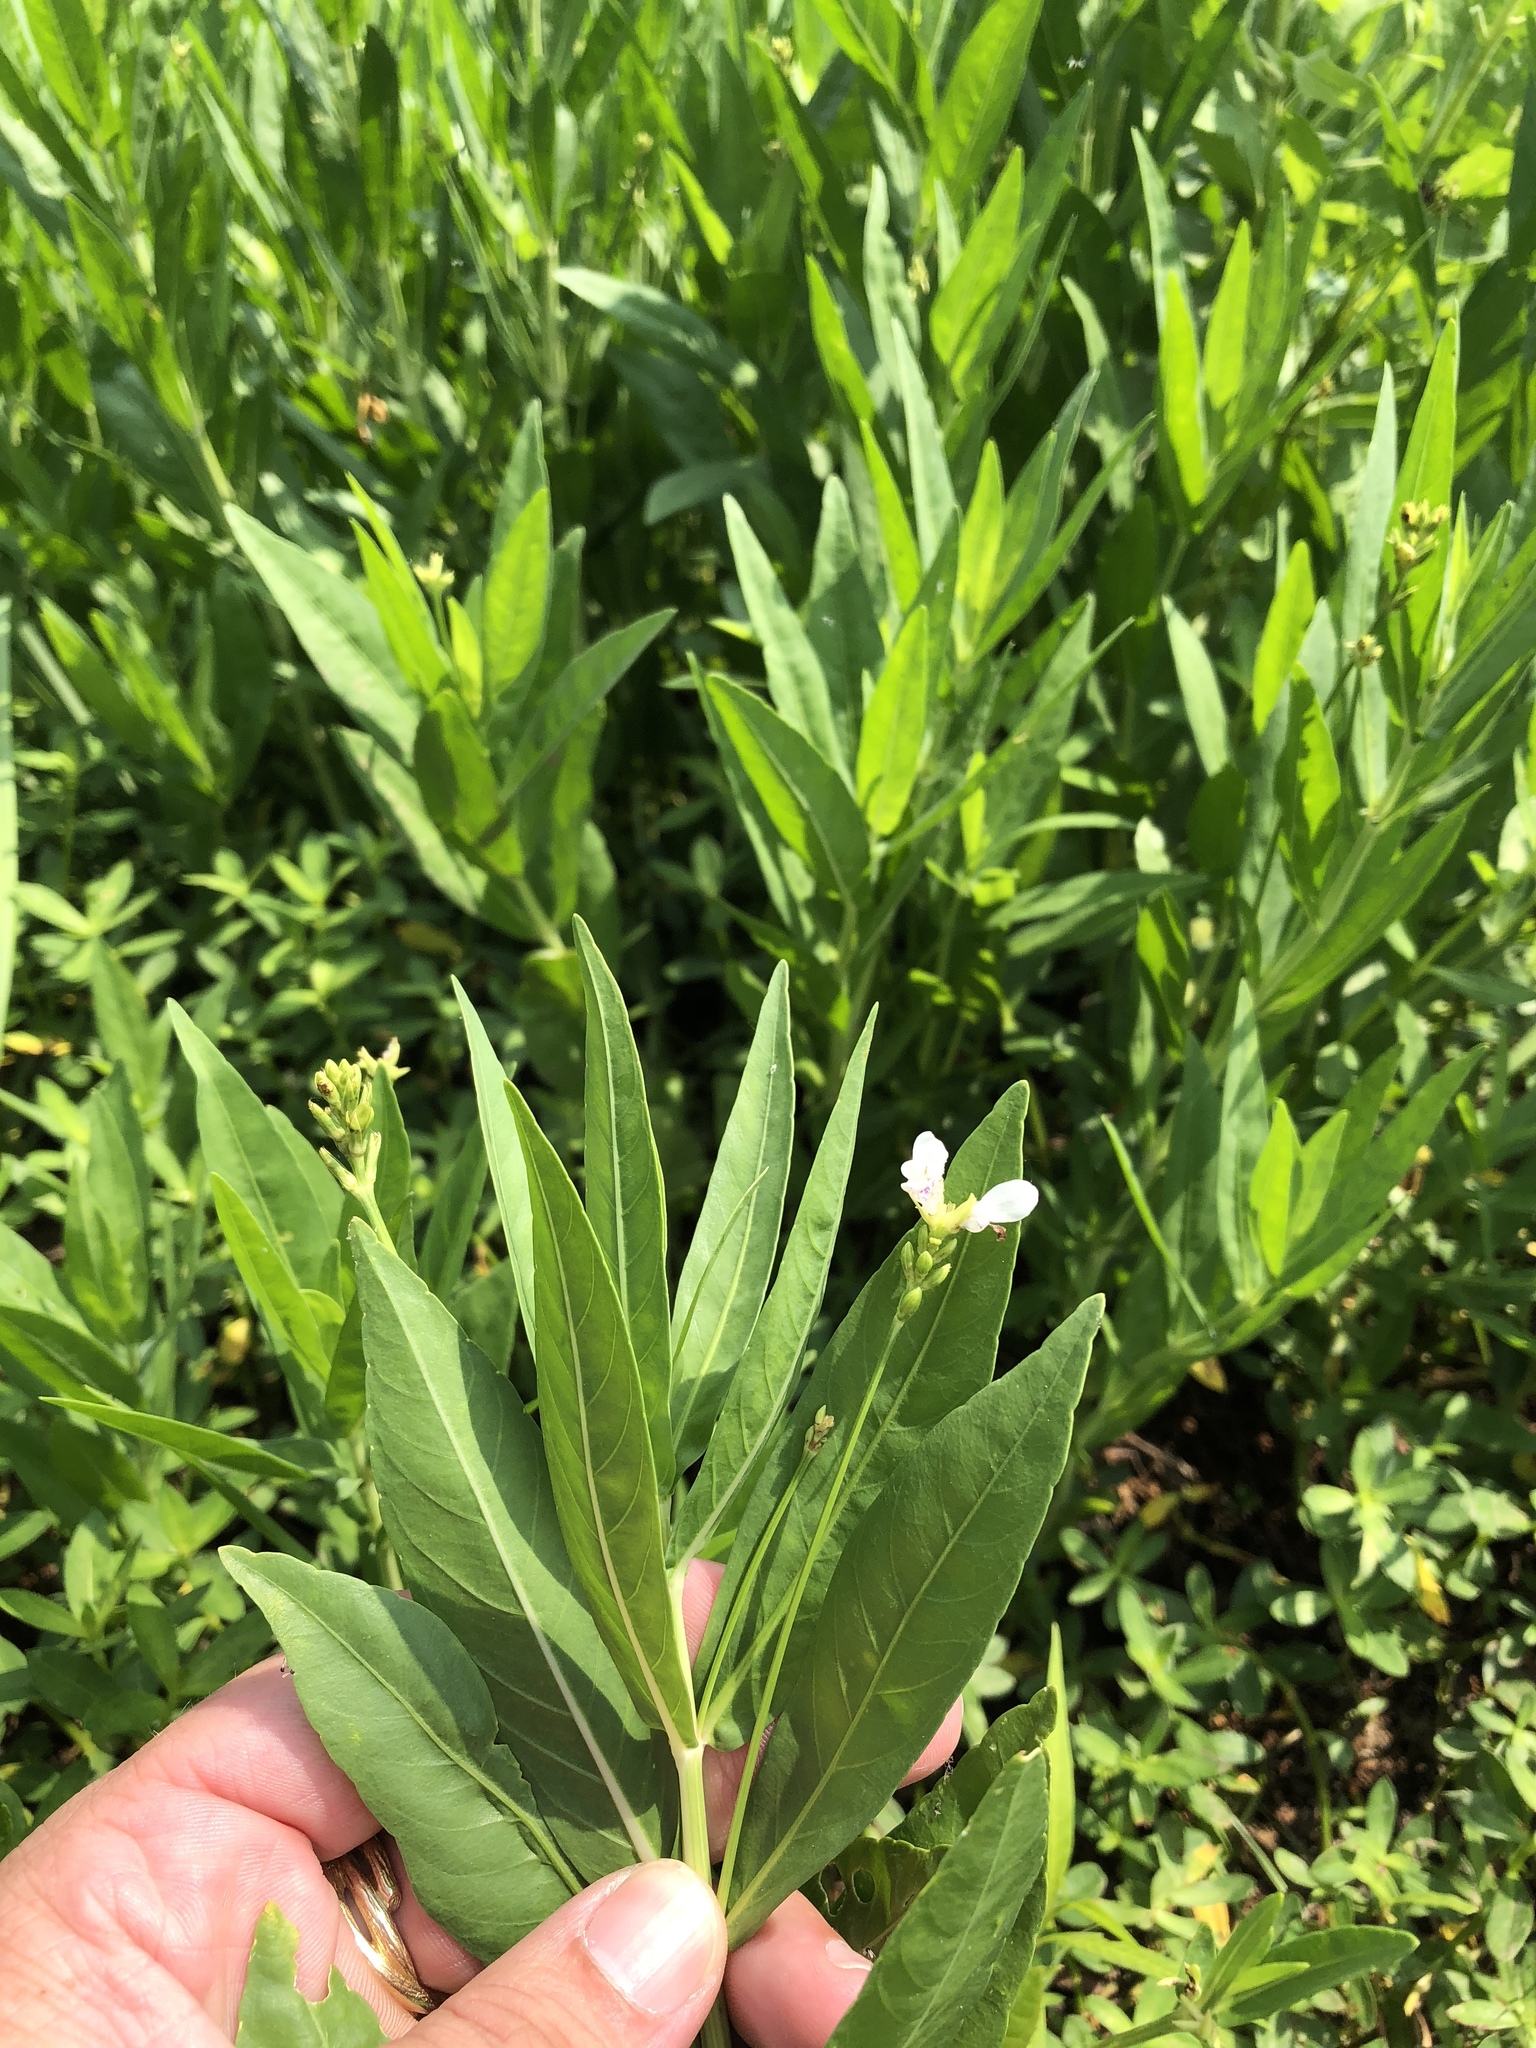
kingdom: Plantae
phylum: Tracheophyta
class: Magnoliopsida
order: Lamiales
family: Acanthaceae
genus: Dianthera
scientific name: Dianthera americana
